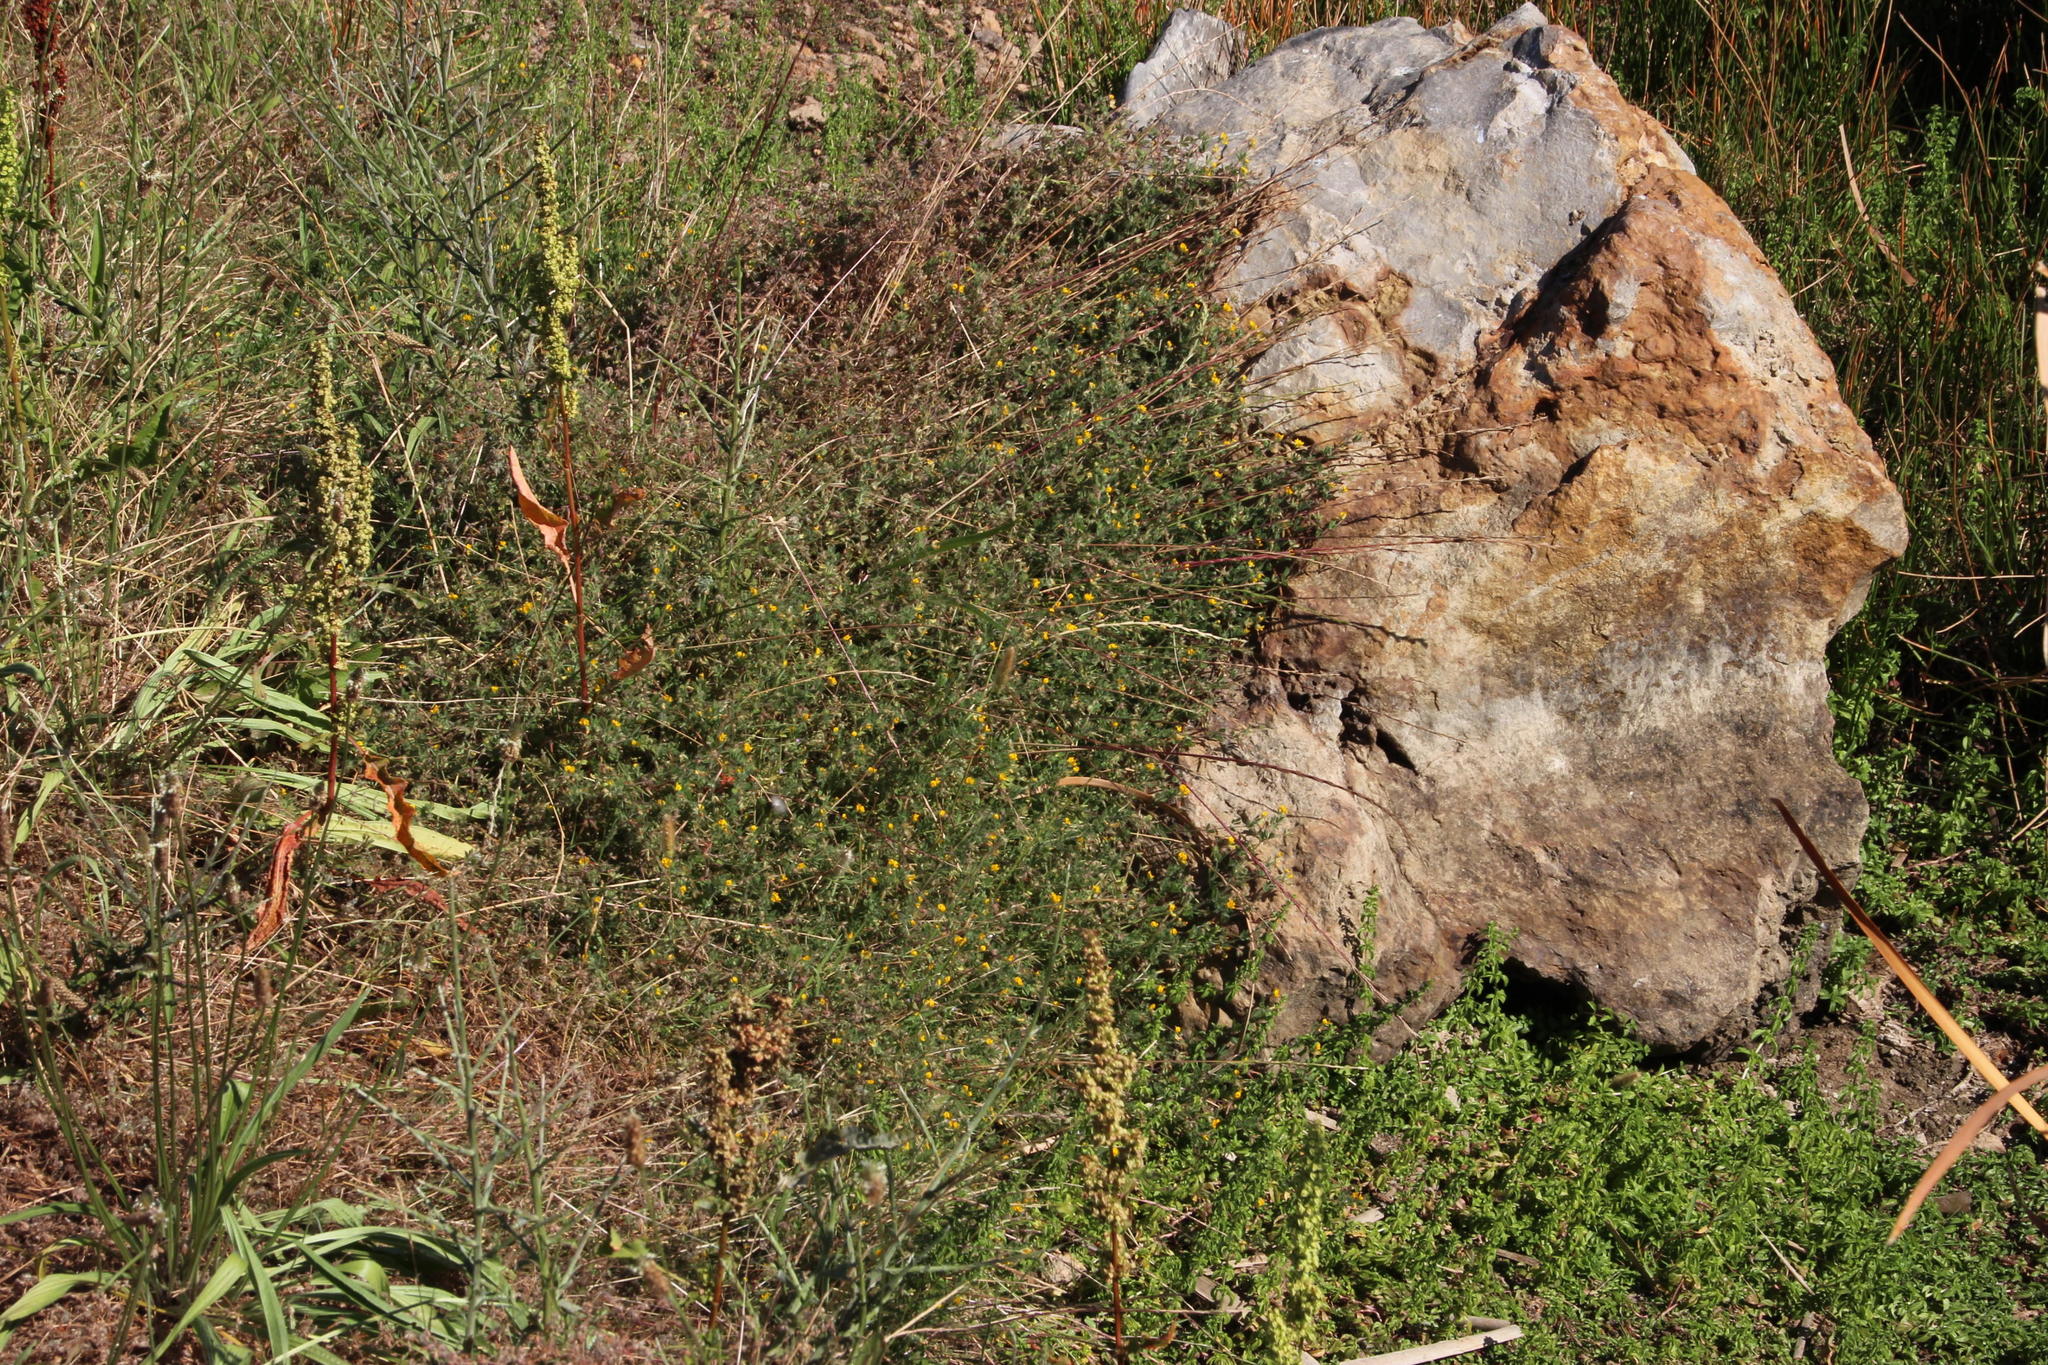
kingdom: Plantae
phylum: Tracheophyta
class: Magnoliopsida
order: Fabales
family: Fabaceae
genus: Lotus
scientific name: Lotus subbiflorus
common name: Hairy bird's-foot trefoil
